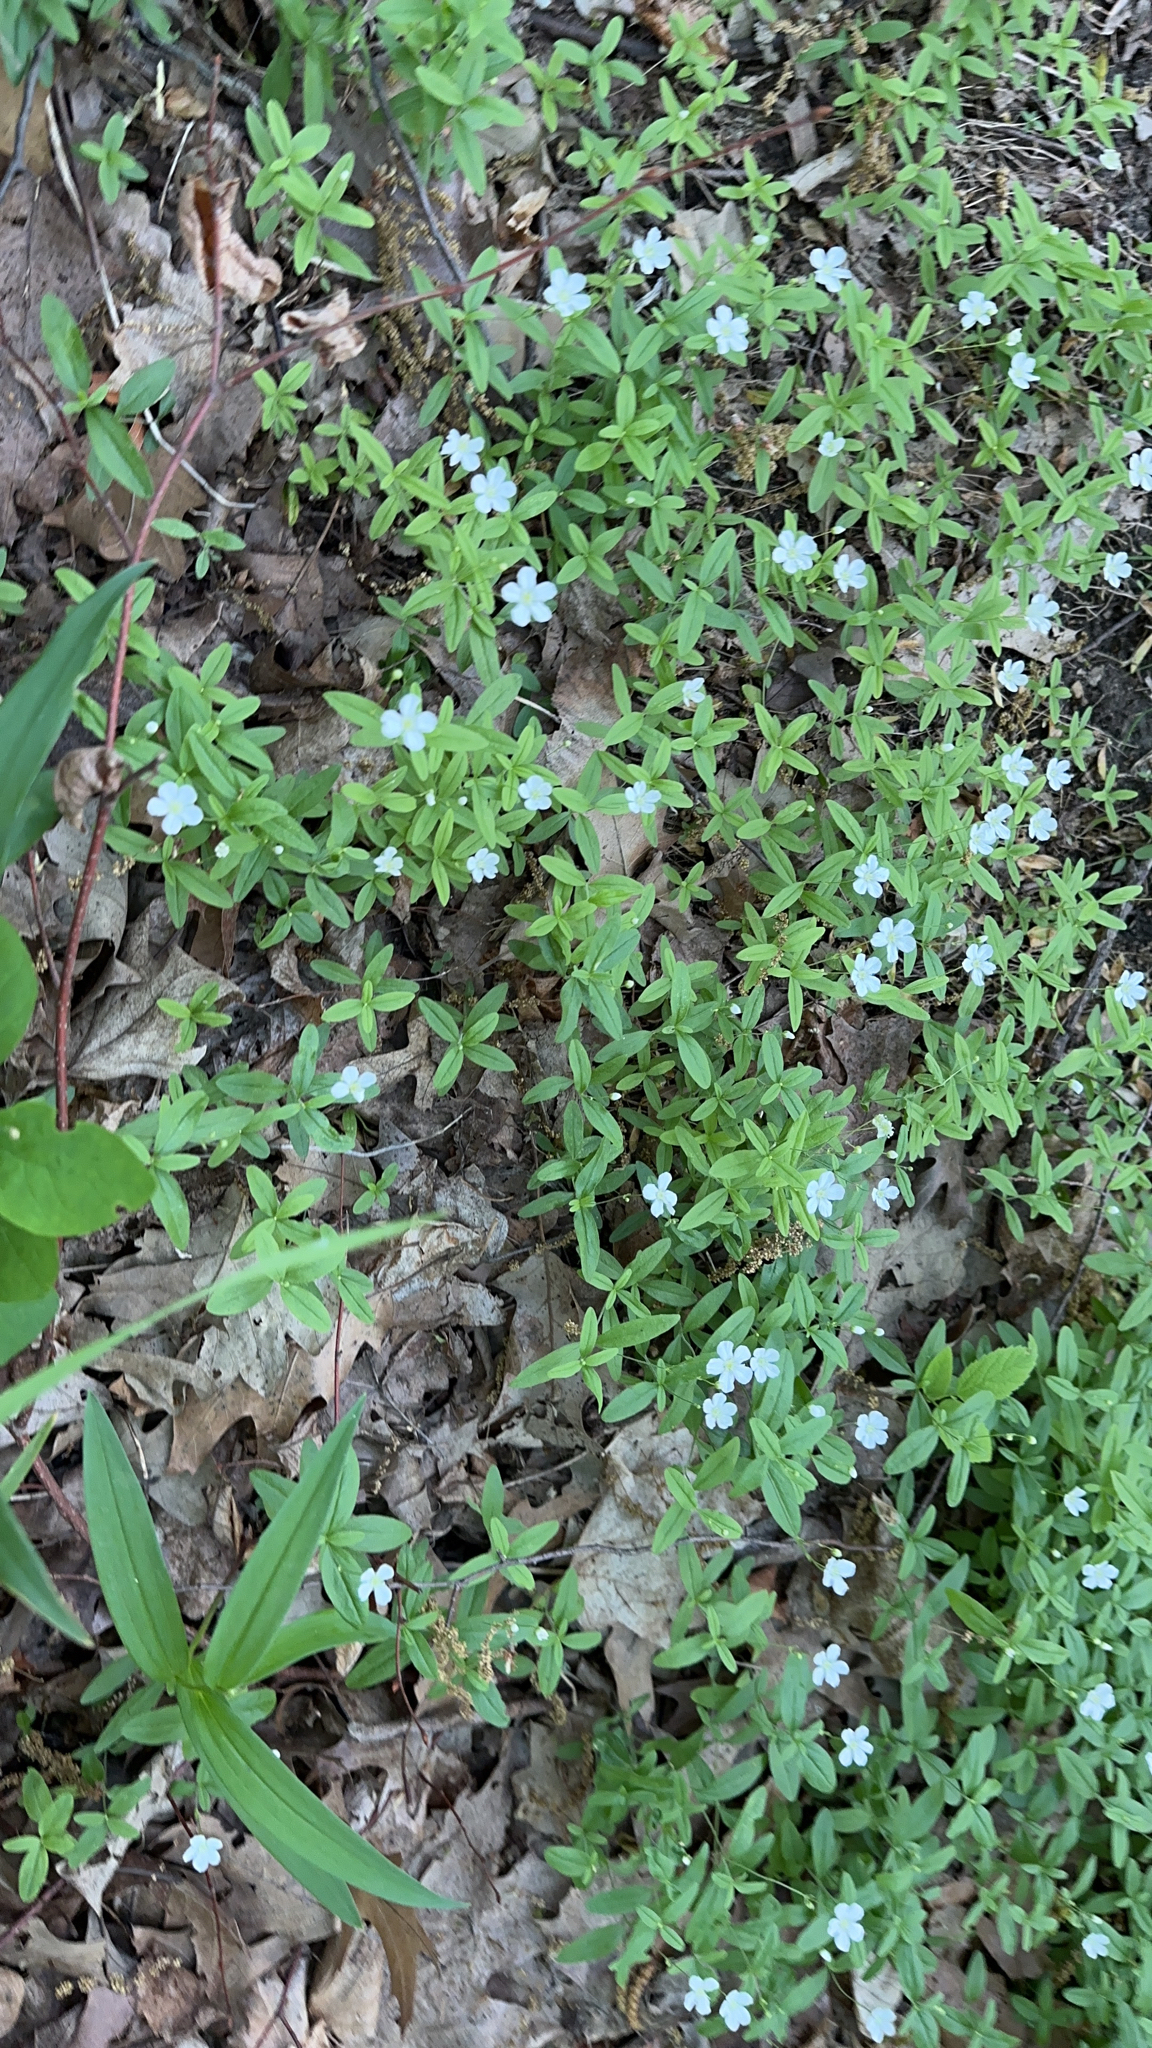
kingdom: Plantae
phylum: Tracheophyta
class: Magnoliopsida
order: Caryophyllales
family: Caryophyllaceae
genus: Moehringia
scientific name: Moehringia lateriflora
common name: Blunt-leaved sandwort
